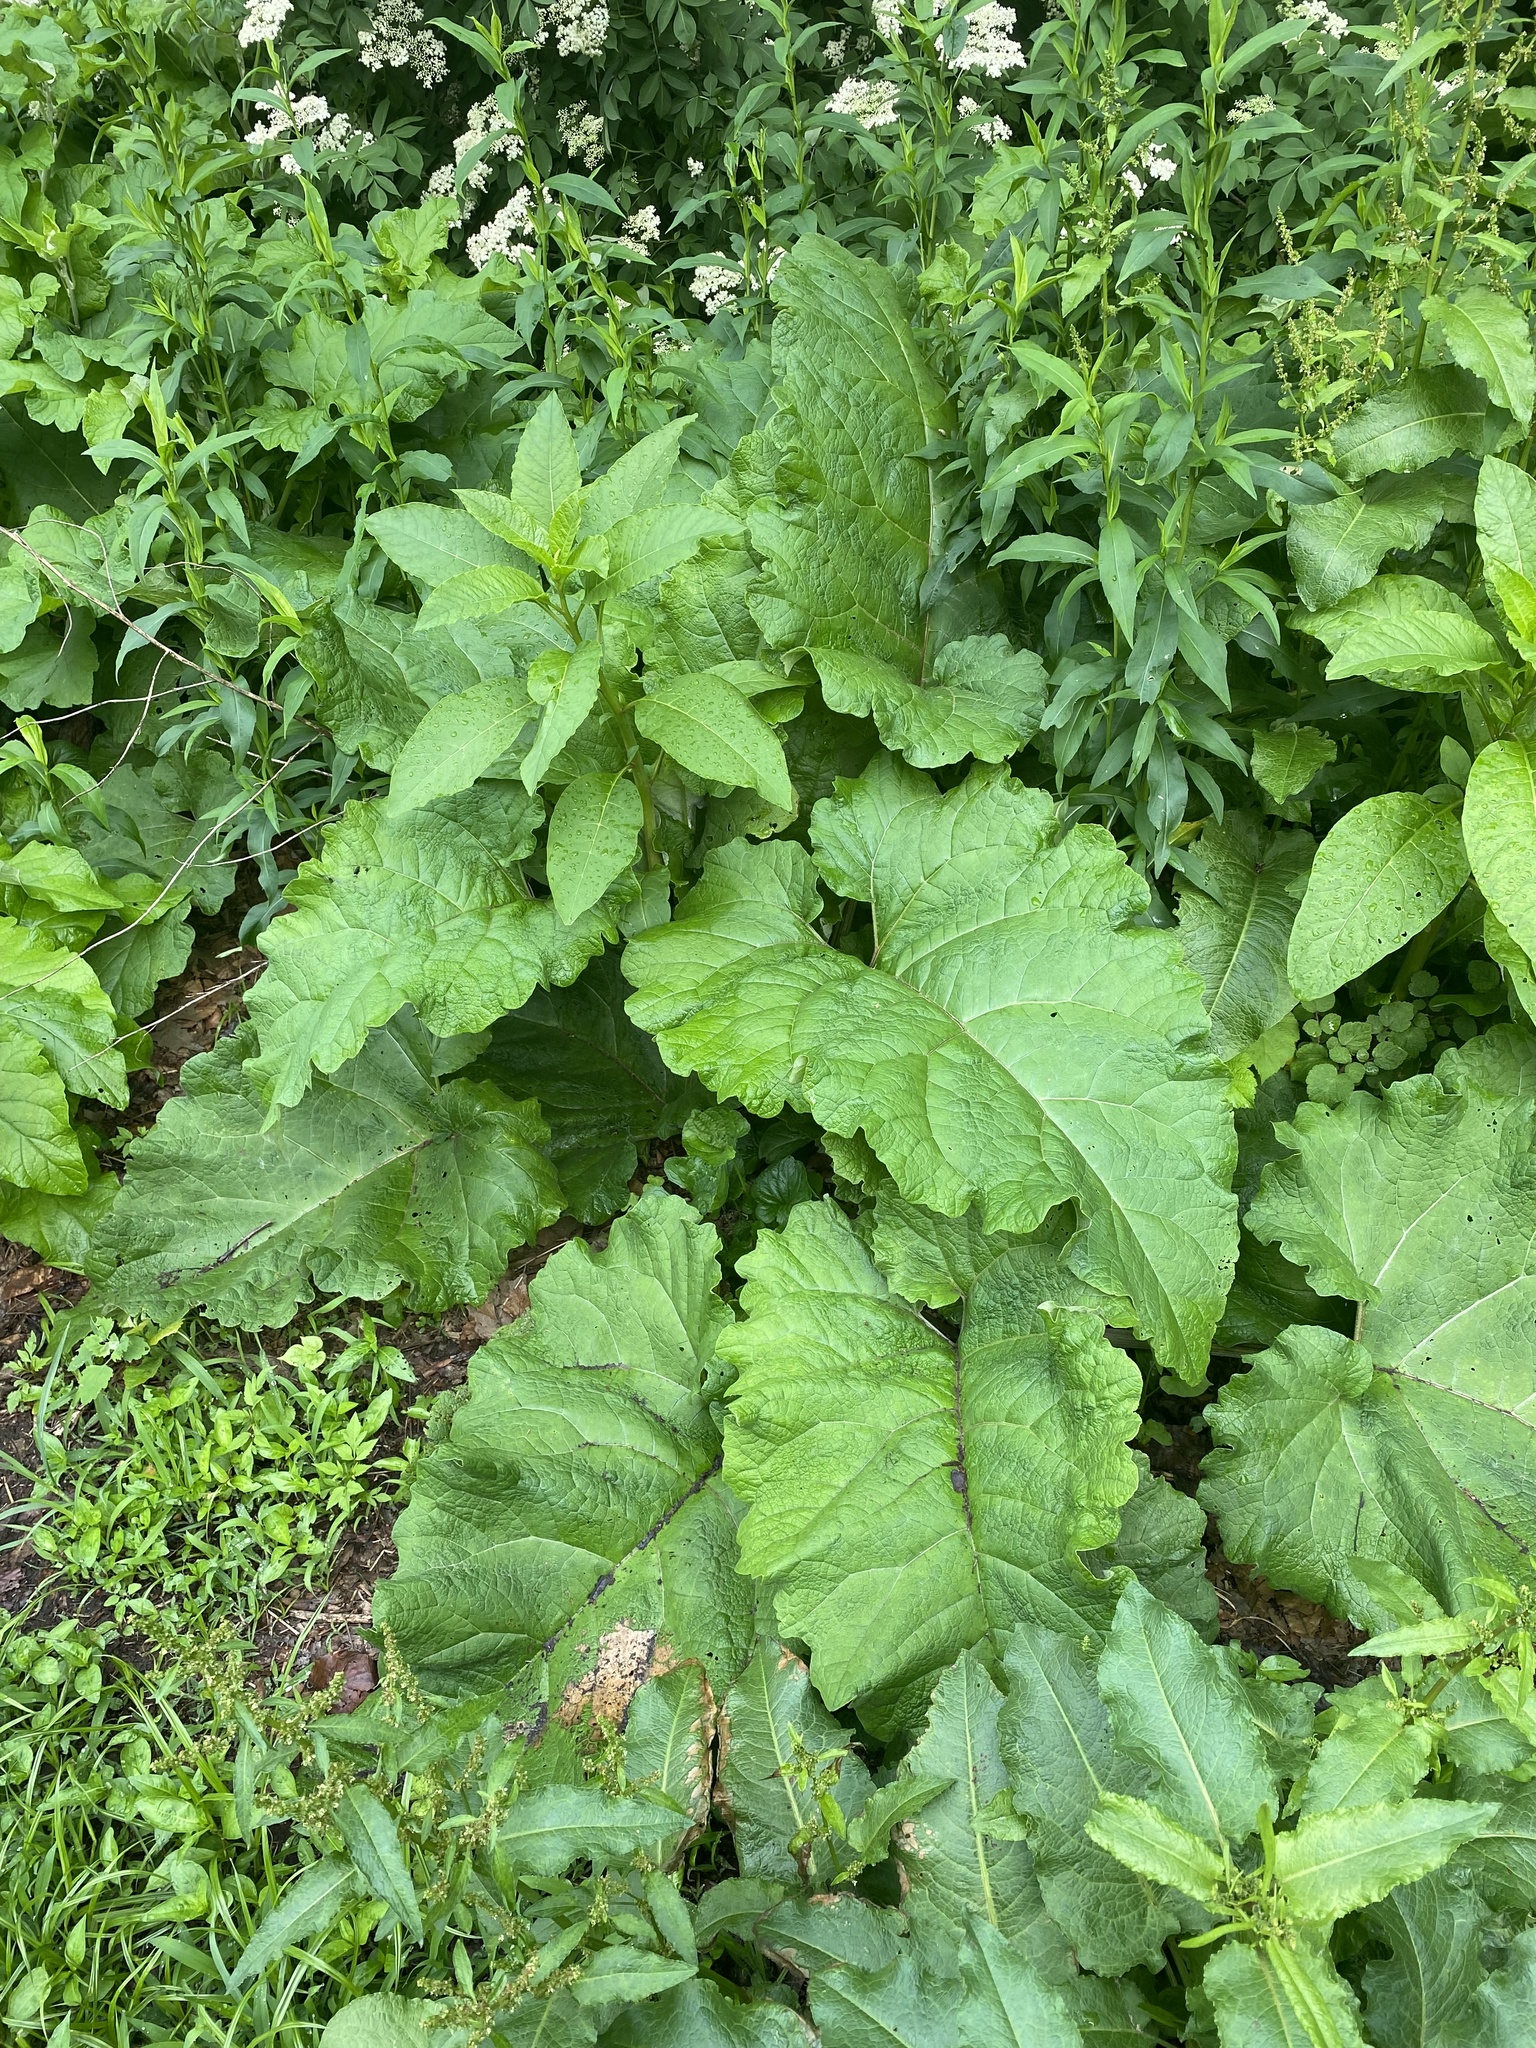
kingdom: Plantae
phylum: Tracheophyta
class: Magnoliopsida
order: Asterales
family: Asteraceae
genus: Arctium
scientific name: Arctium
